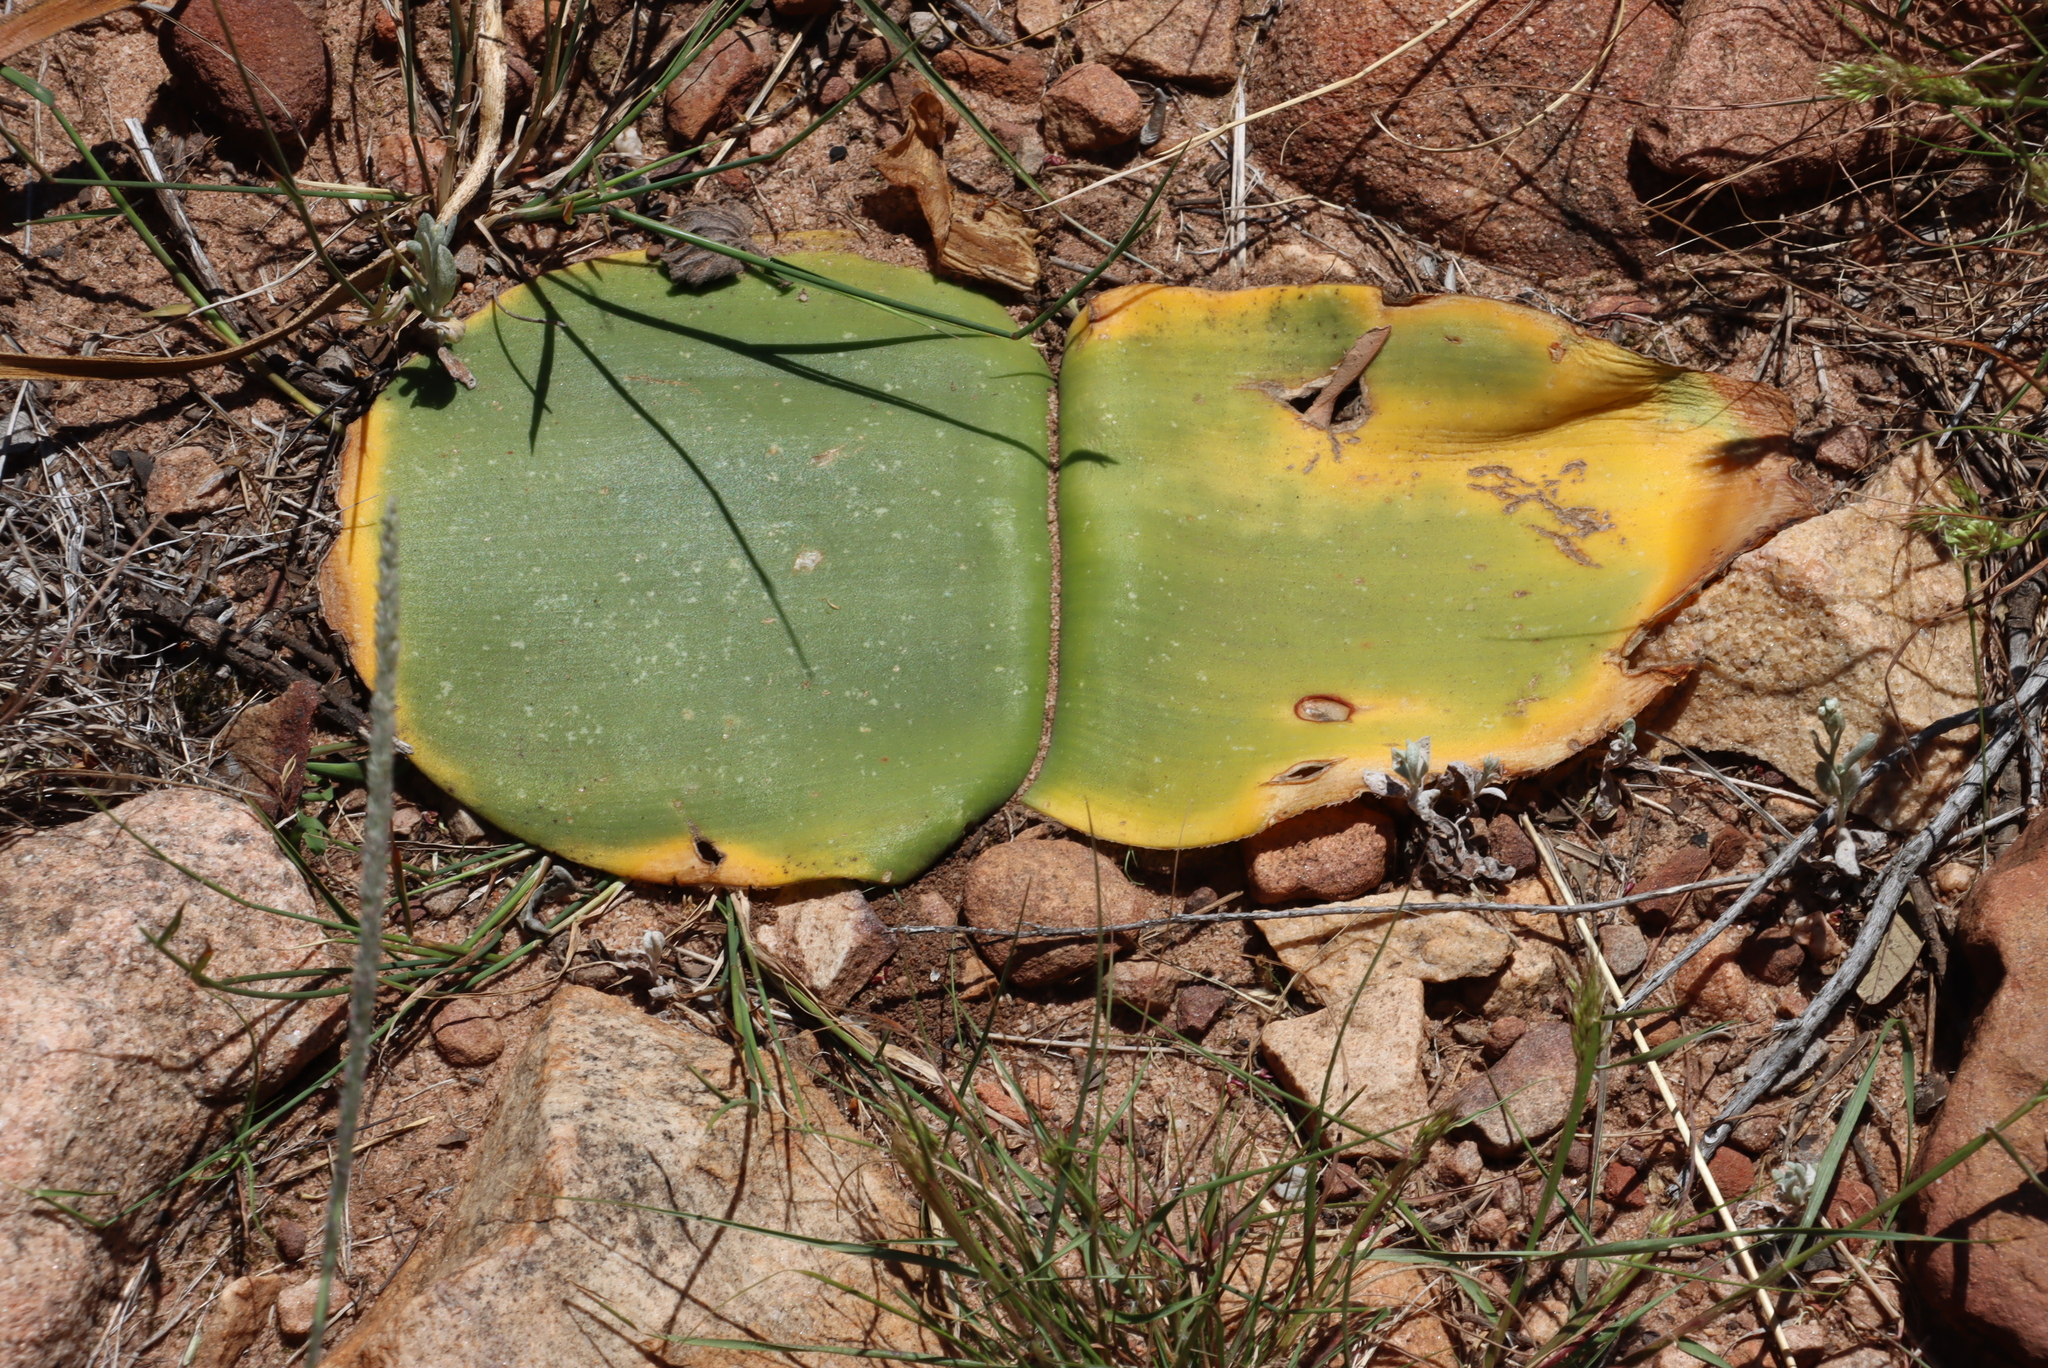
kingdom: Plantae
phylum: Tracheophyta
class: Liliopsida
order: Asparagales
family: Amaryllidaceae
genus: Haemanthus
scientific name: Haemanthus sanguineus
